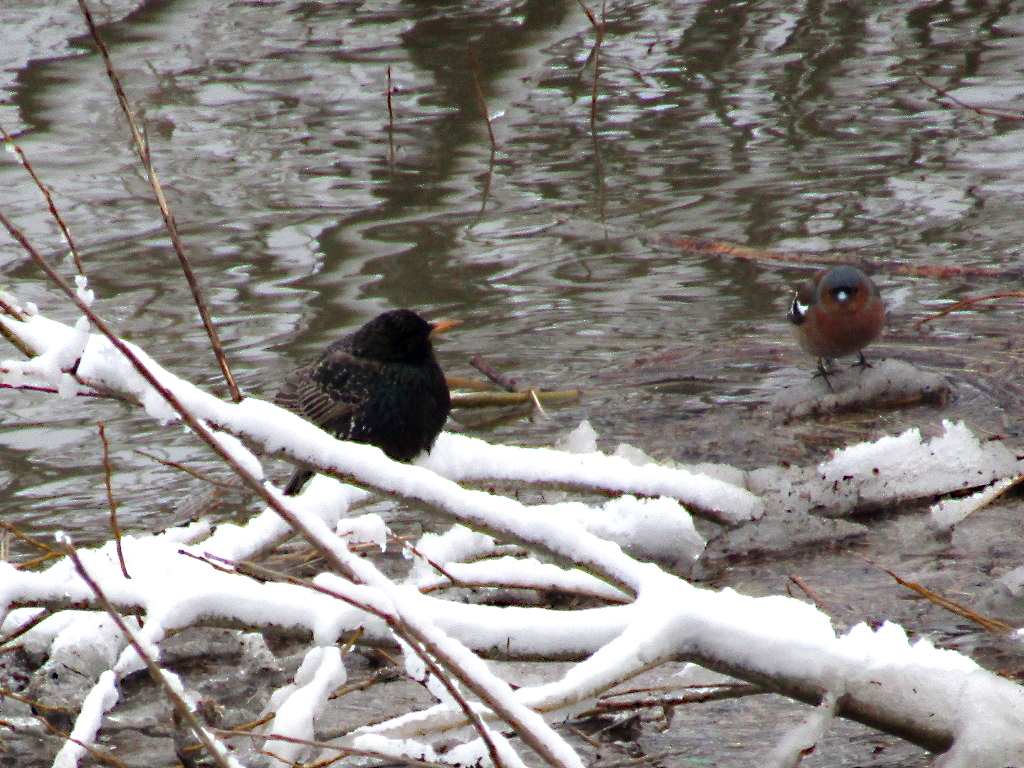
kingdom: Animalia
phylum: Chordata
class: Aves
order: Passeriformes
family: Sturnidae
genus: Sturnus
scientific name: Sturnus vulgaris
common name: Common starling
